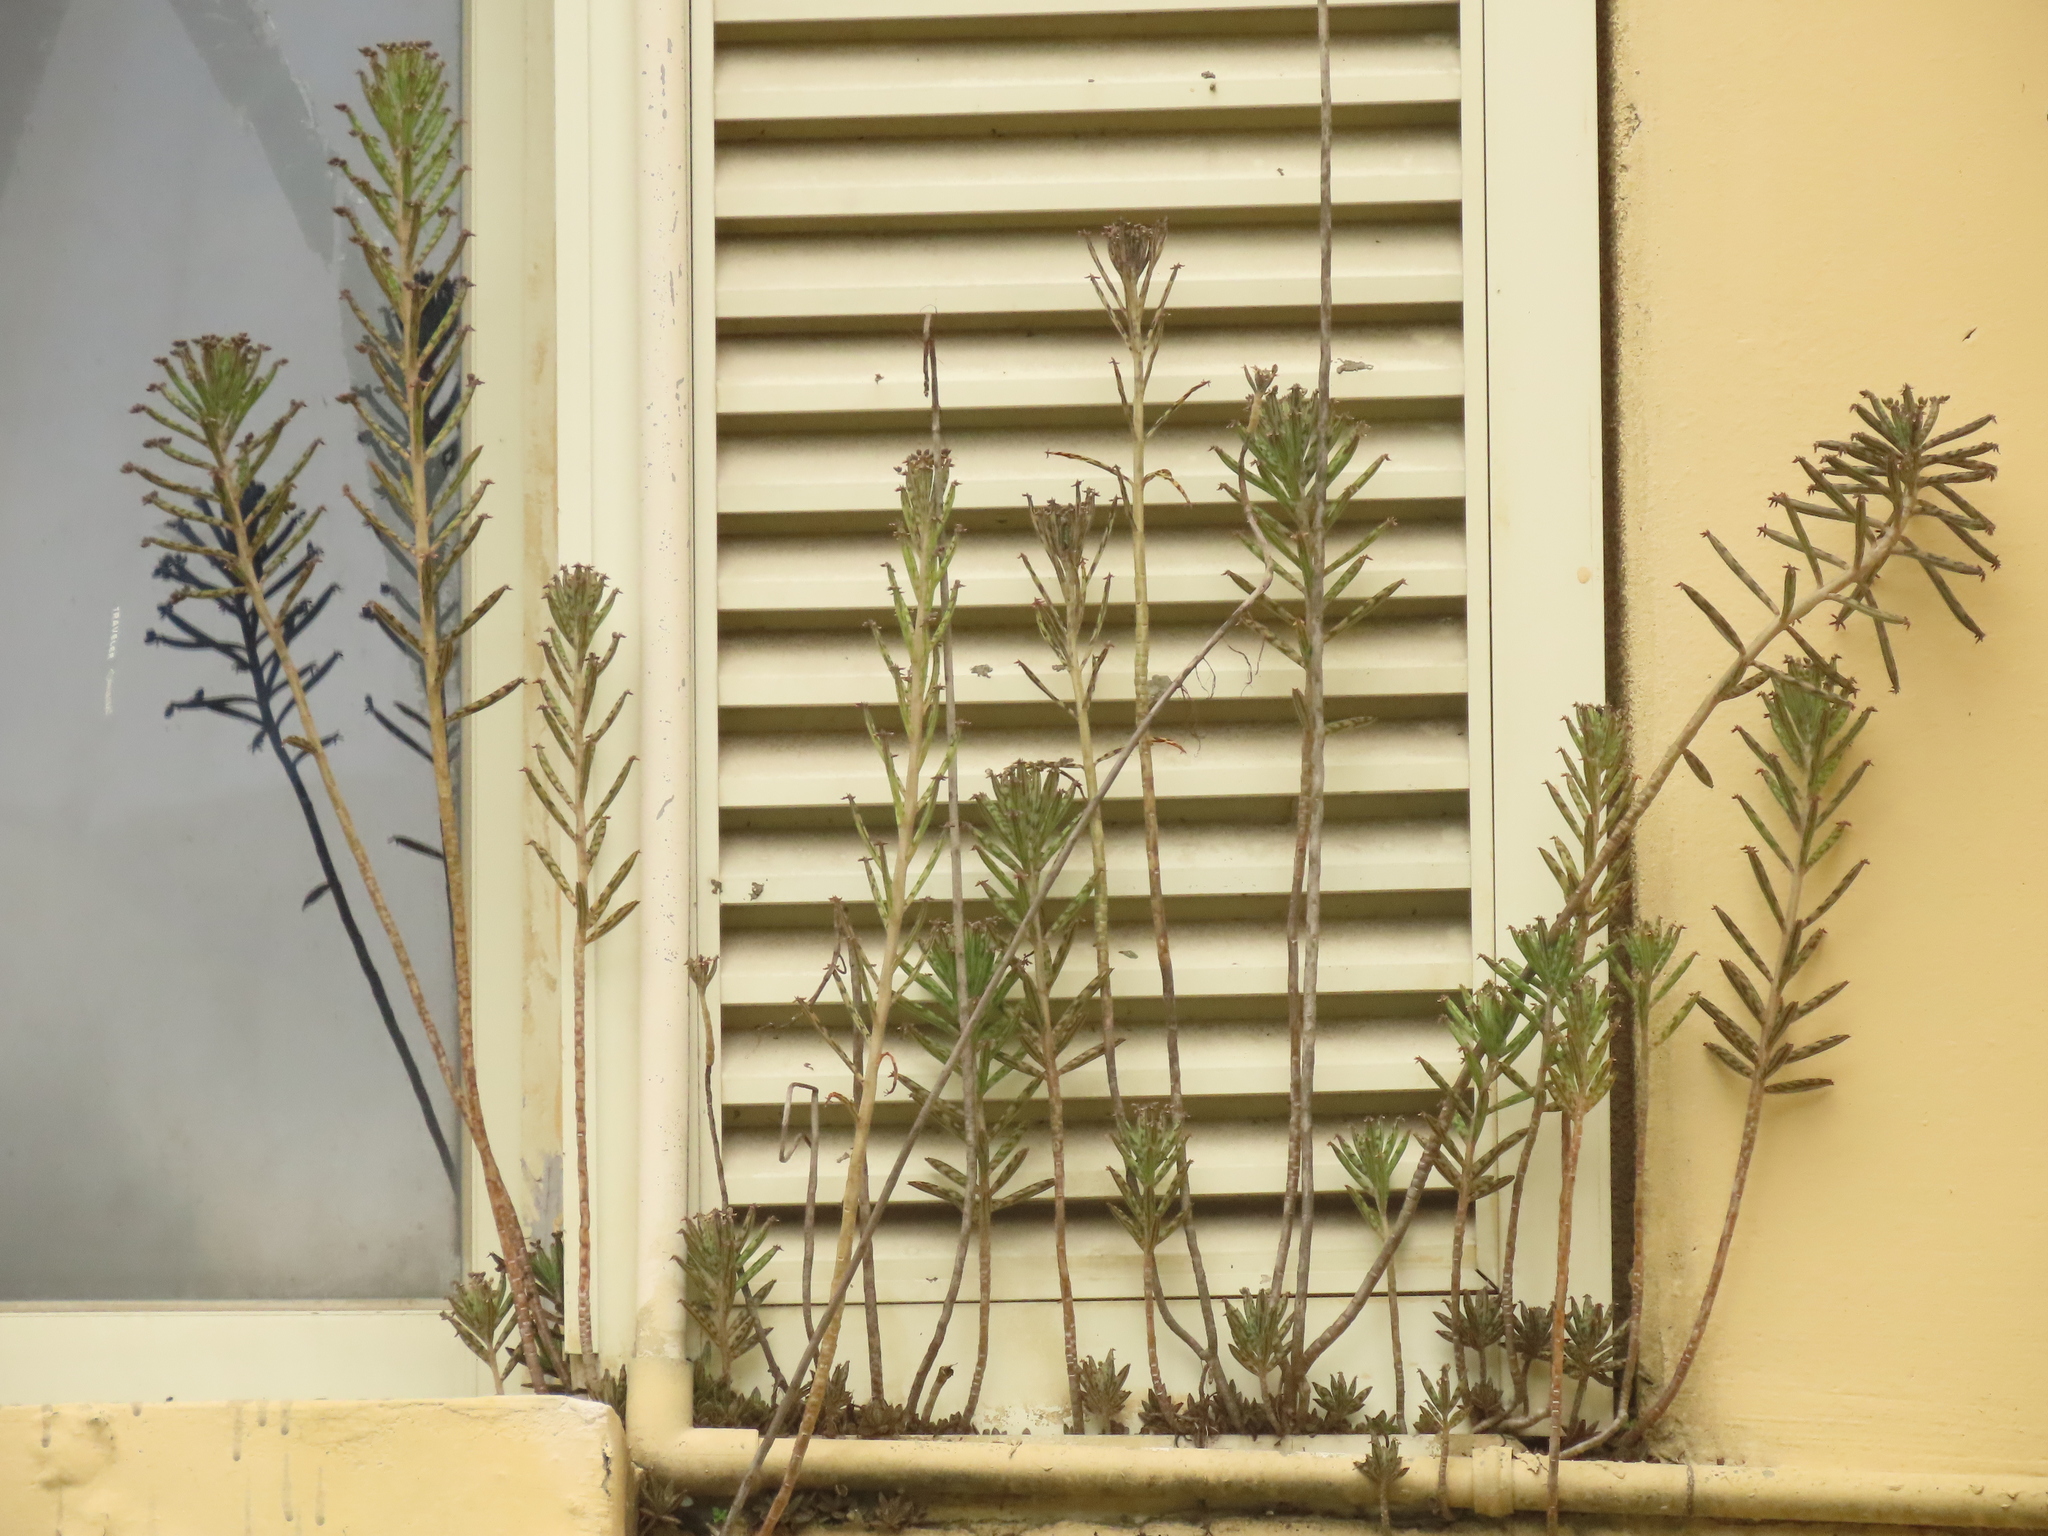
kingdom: Plantae
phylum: Tracheophyta
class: Magnoliopsida
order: Saxifragales
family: Crassulaceae
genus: Kalanchoe
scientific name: Kalanchoe delagoensis
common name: Chandelier plant
